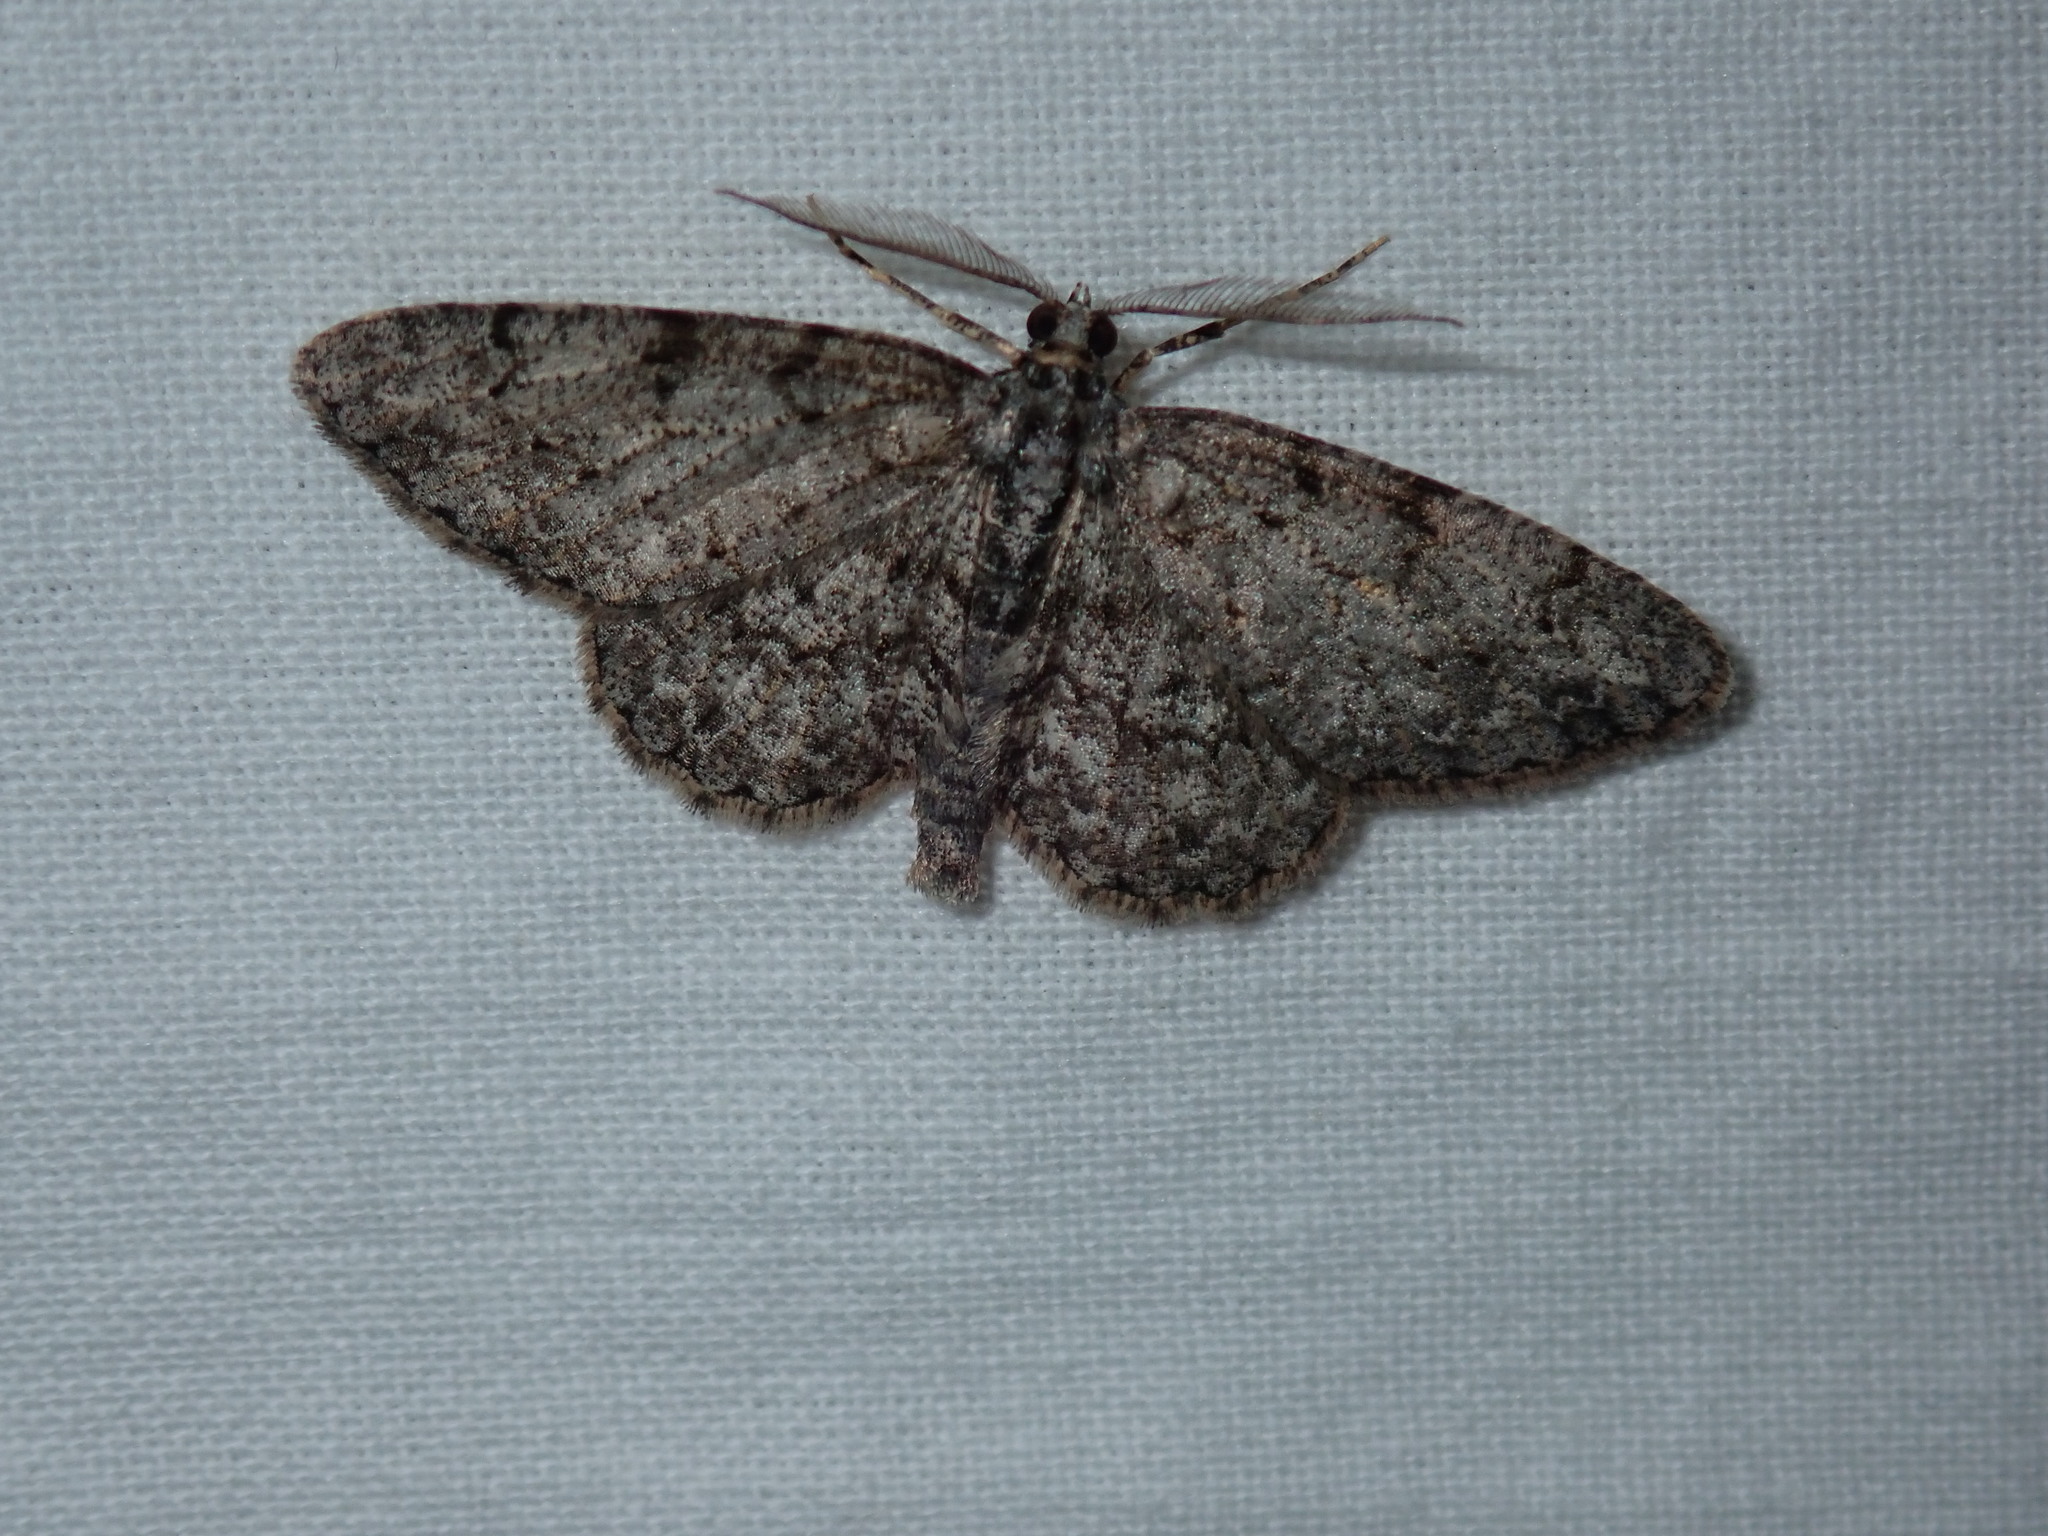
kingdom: Animalia
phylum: Arthropoda
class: Insecta
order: Lepidoptera
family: Geometridae
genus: Protoboarmia
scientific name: Protoboarmia porcelaria
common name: Porcelain gray
